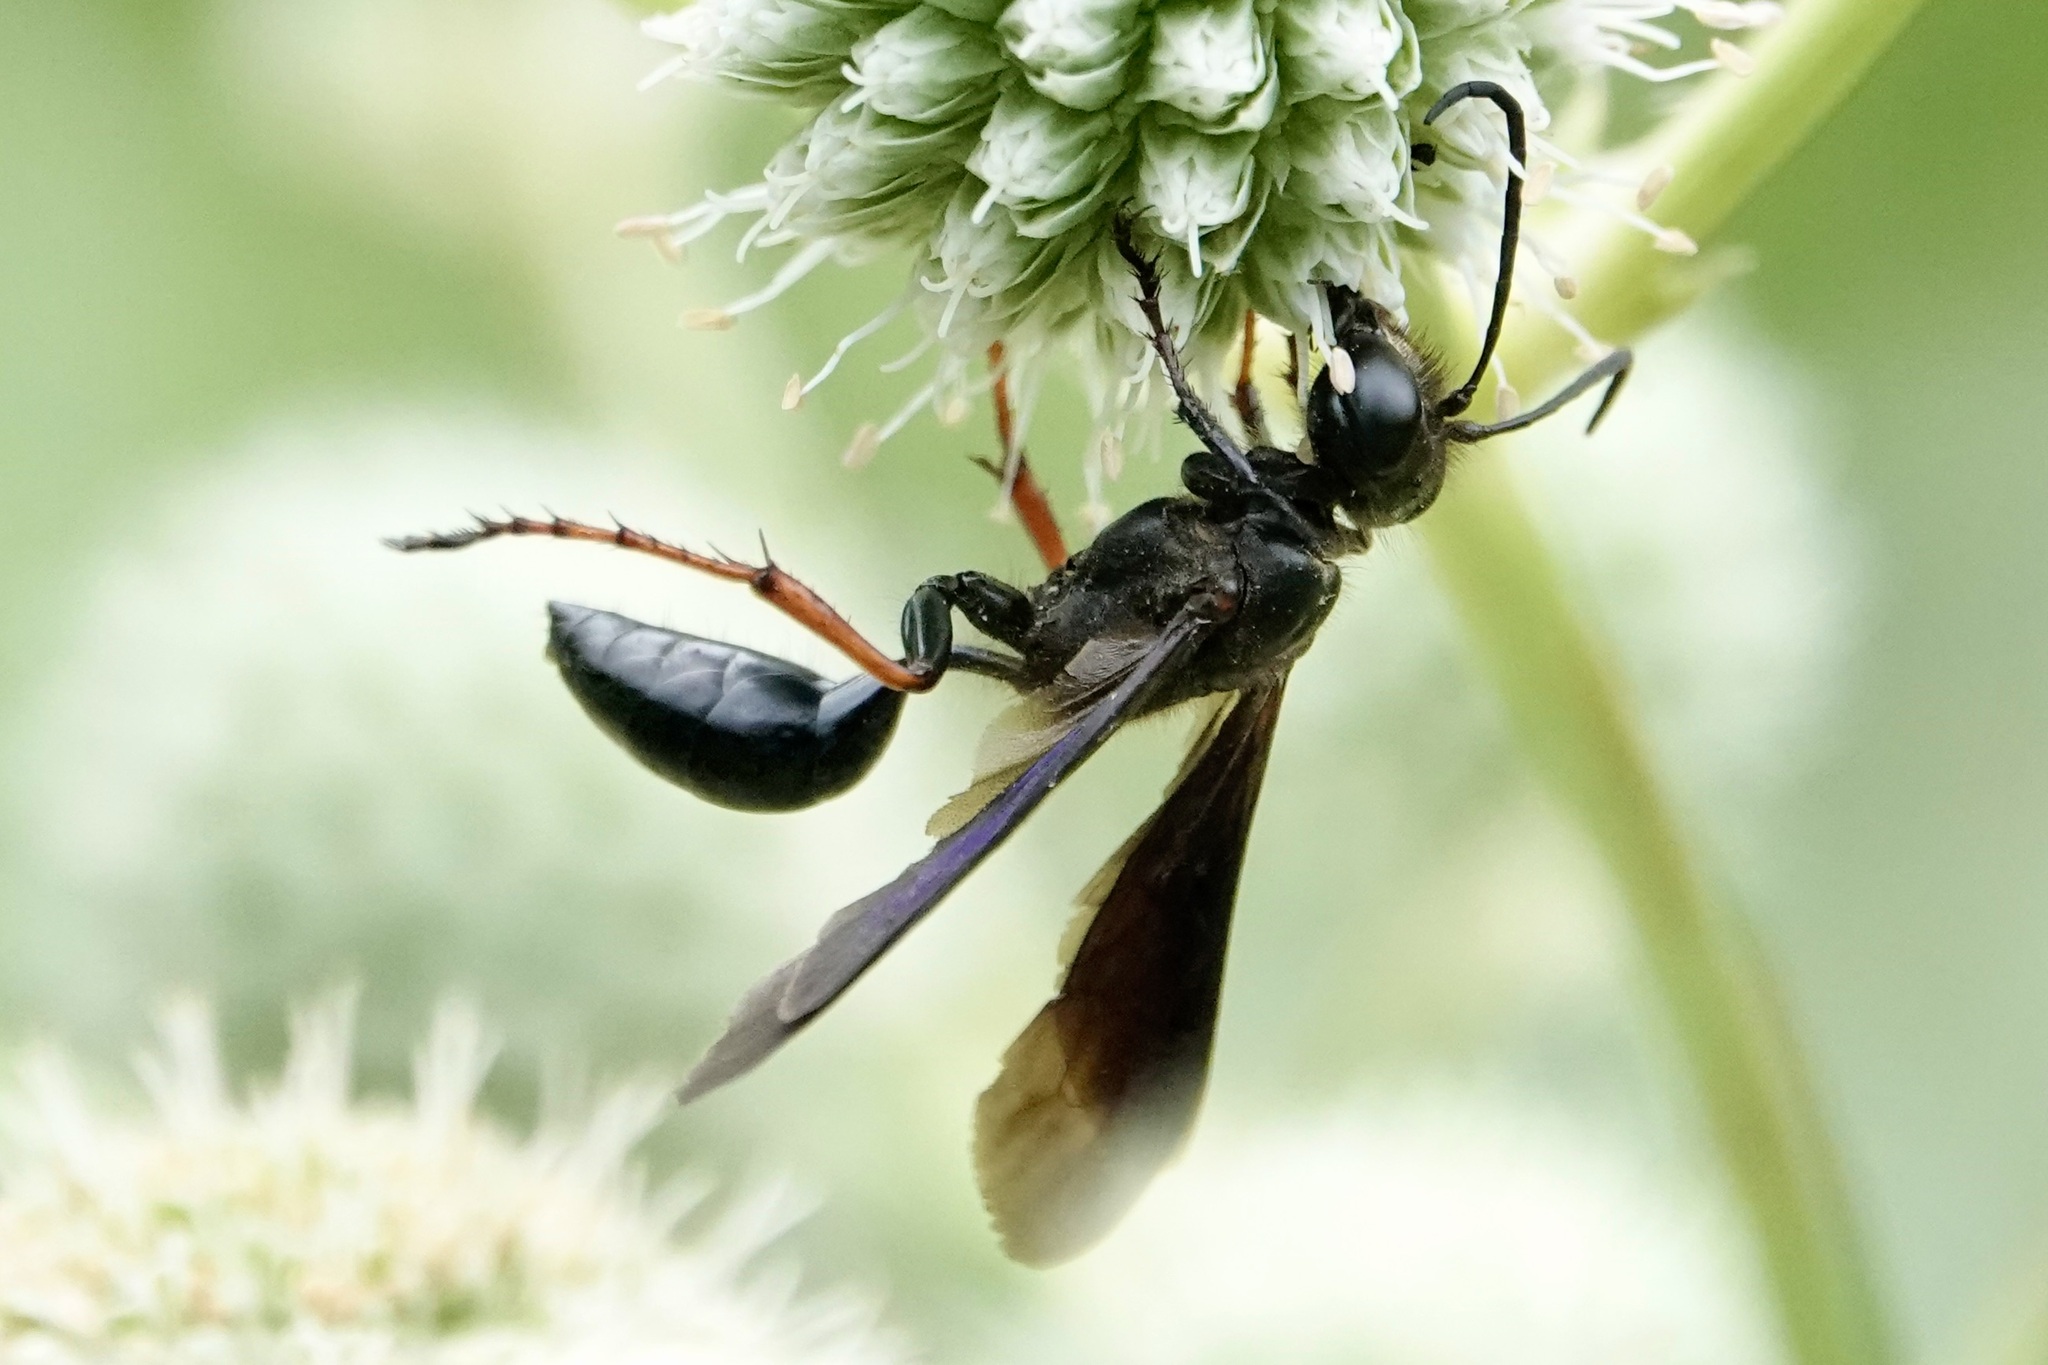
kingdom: Animalia
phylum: Arthropoda
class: Insecta
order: Hymenoptera
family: Sphecidae
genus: Isodontia
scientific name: Isodontia auripes
